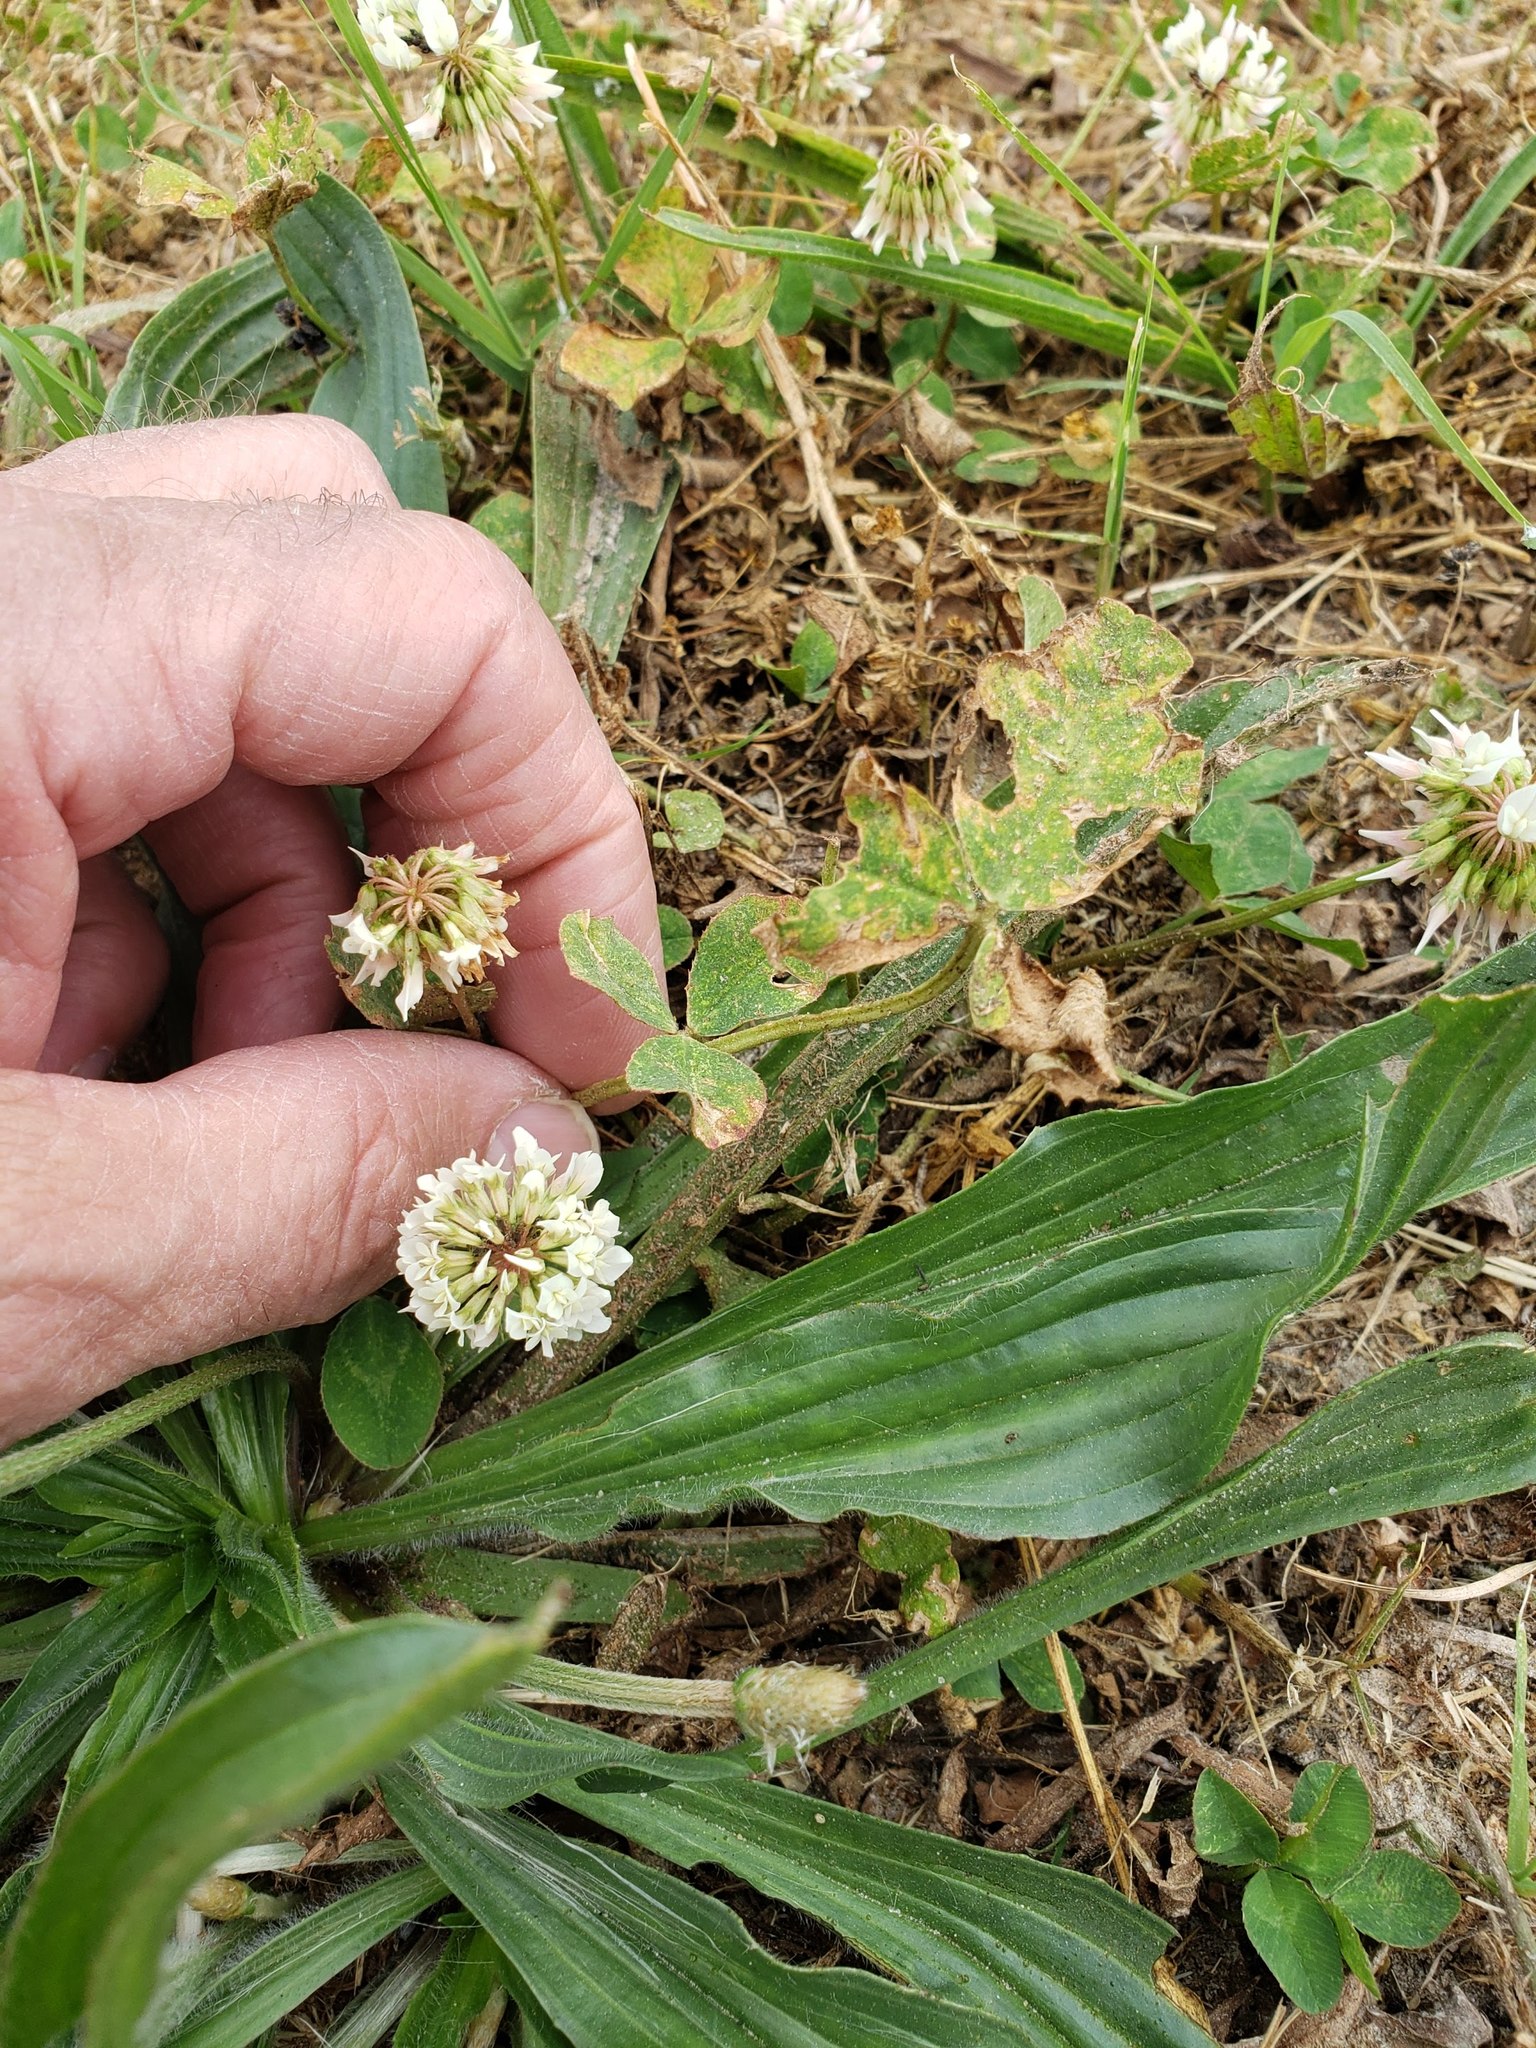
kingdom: Plantae
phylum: Tracheophyta
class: Magnoliopsida
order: Fabales
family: Fabaceae
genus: Trifolium
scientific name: Trifolium repens
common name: White clover
